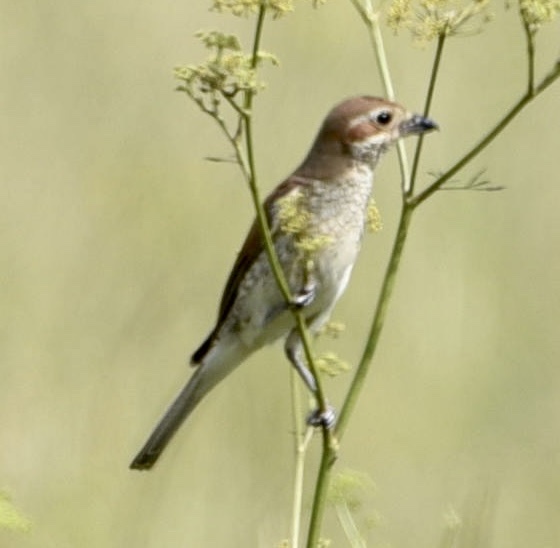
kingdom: Animalia
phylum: Chordata
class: Aves
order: Passeriformes
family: Laniidae
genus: Lanius
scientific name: Lanius collurio
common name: Red-backed shrike
